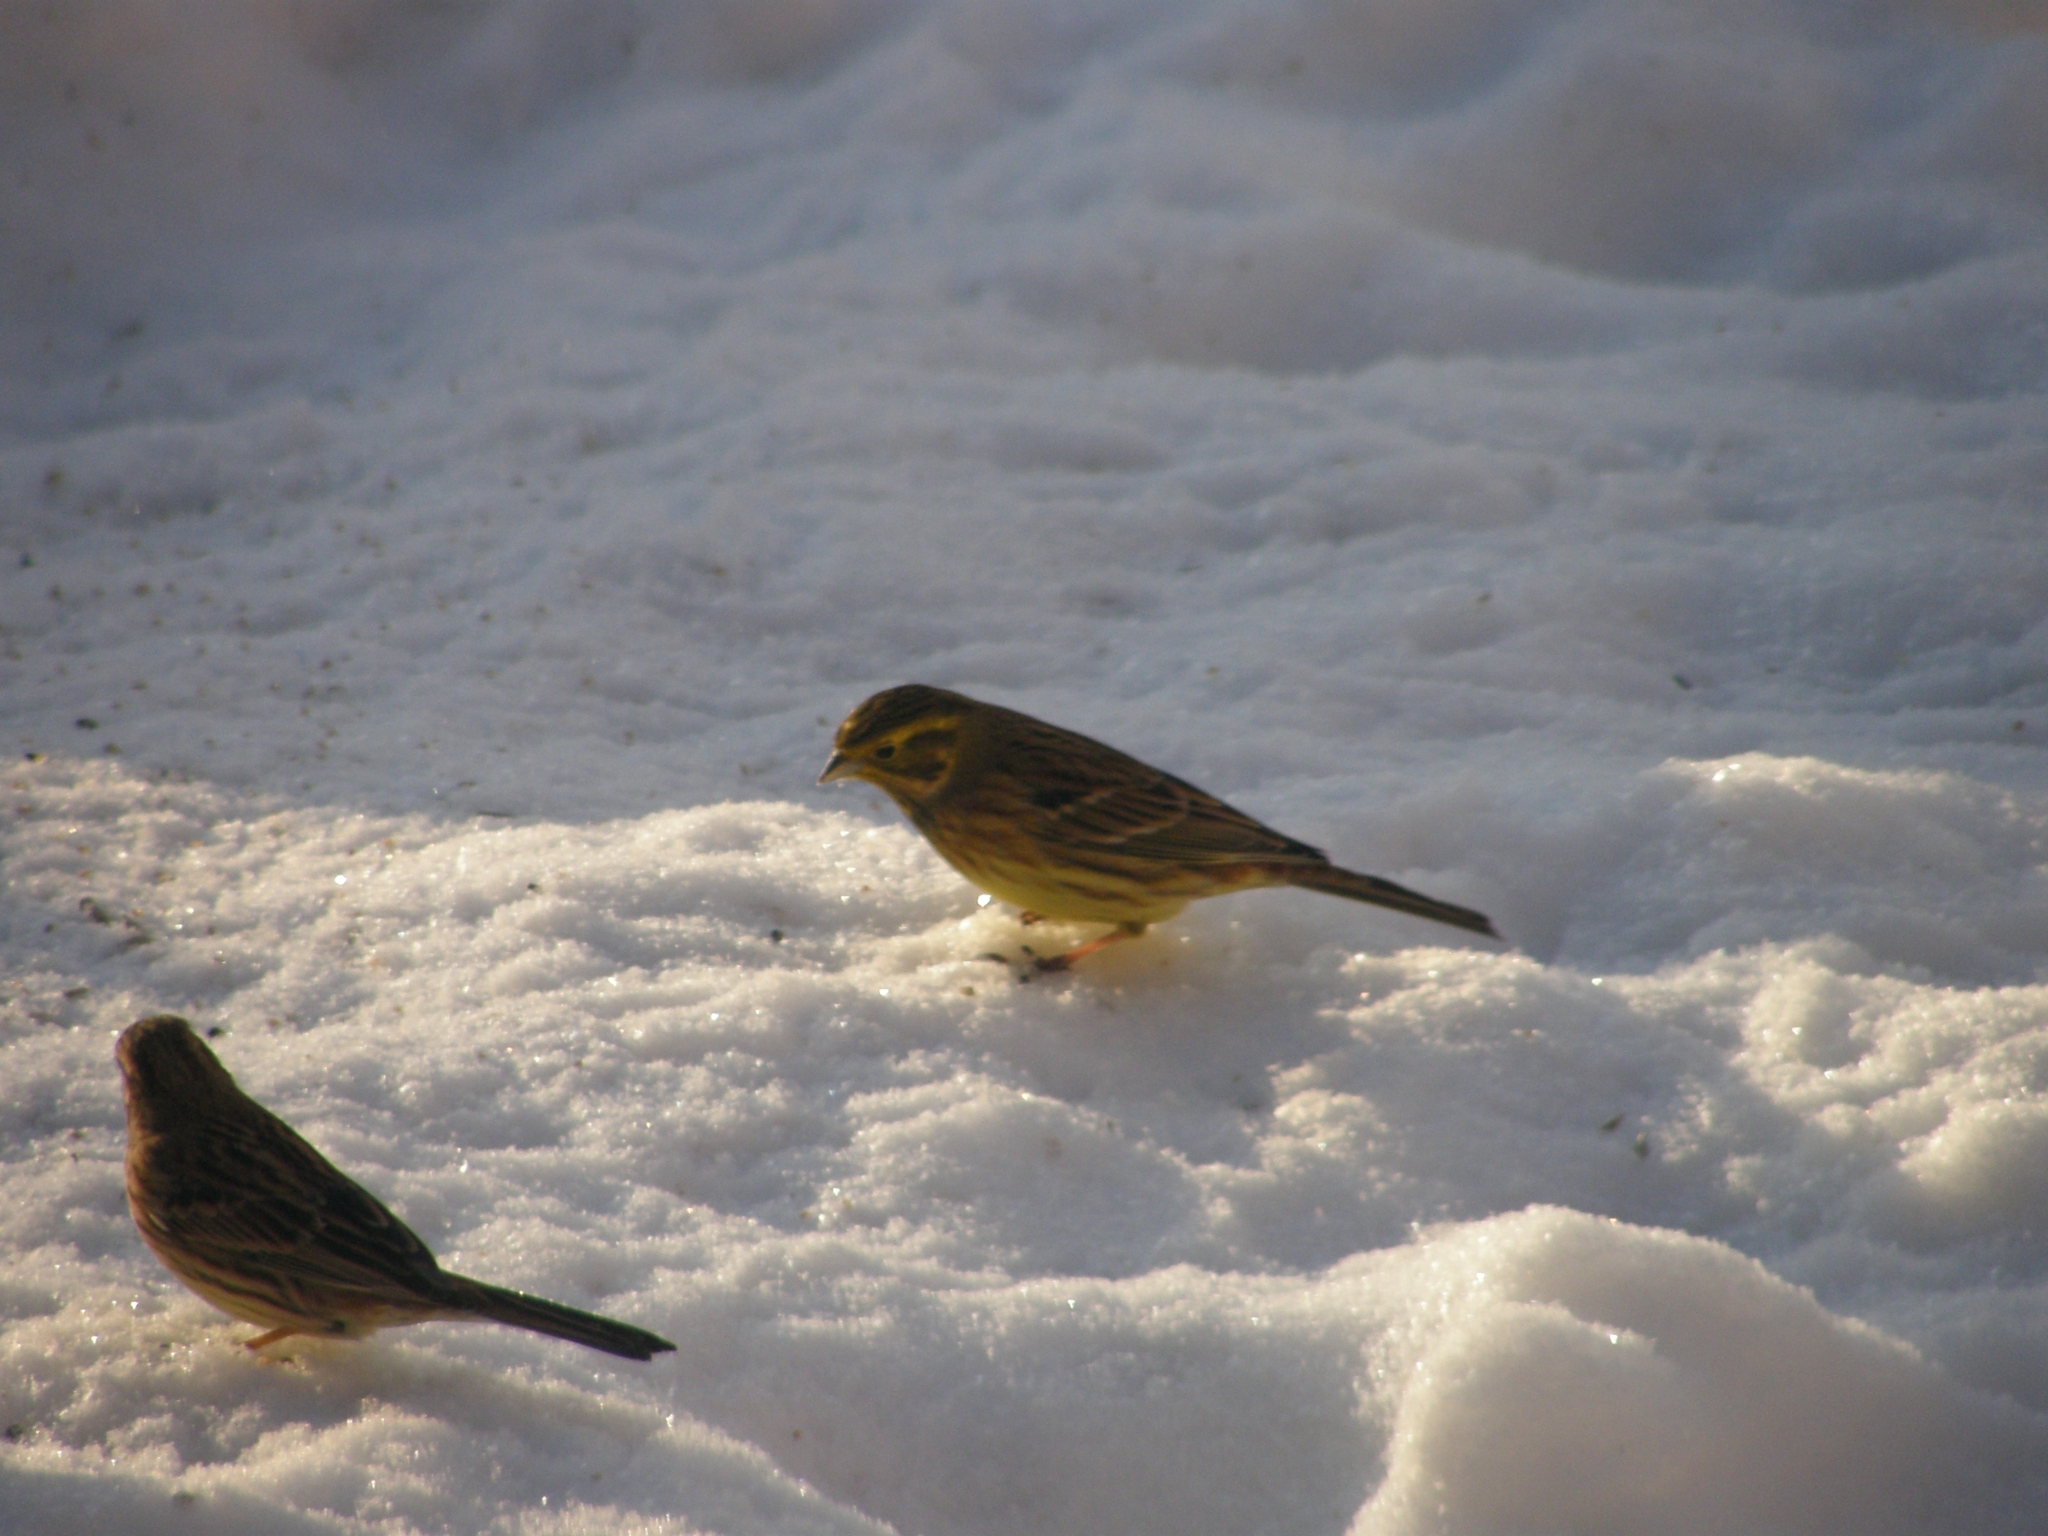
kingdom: Animalia
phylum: Chordata
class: Aves
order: Passeriformes
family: Emberizidae
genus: Emberiza
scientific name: Emberiza citrinella
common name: Yellowhammer
